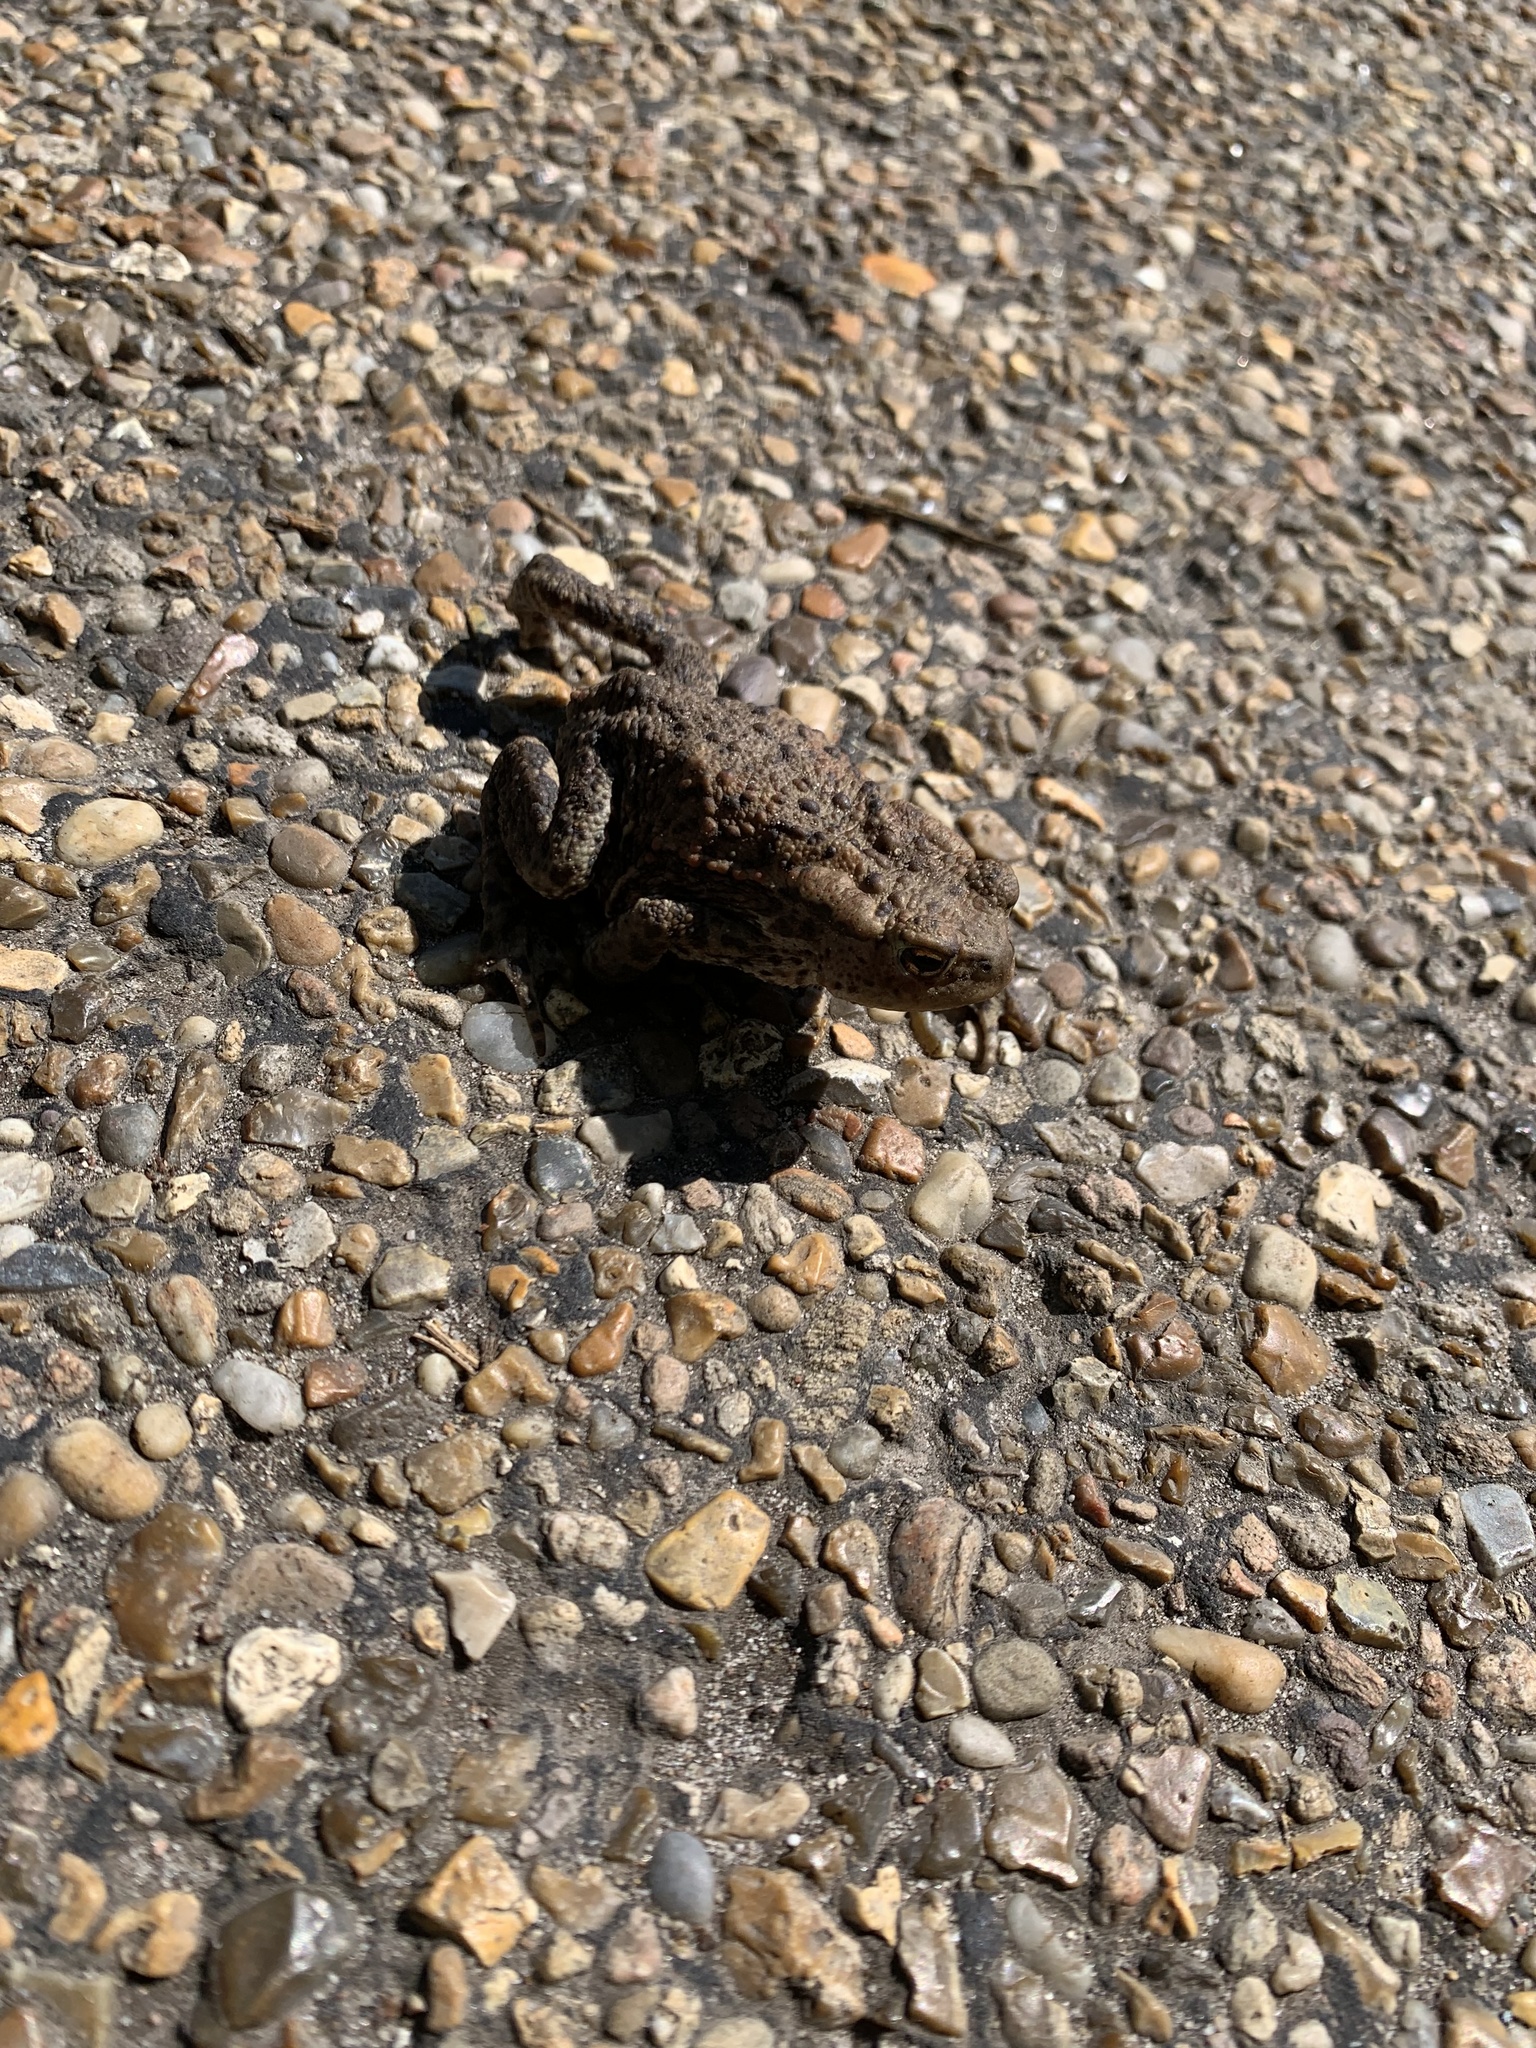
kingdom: Animalia
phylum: Chordata
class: Amphibia
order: Anura
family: Bufonidae
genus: Bufo
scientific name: Bufo bufo
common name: Common toad
